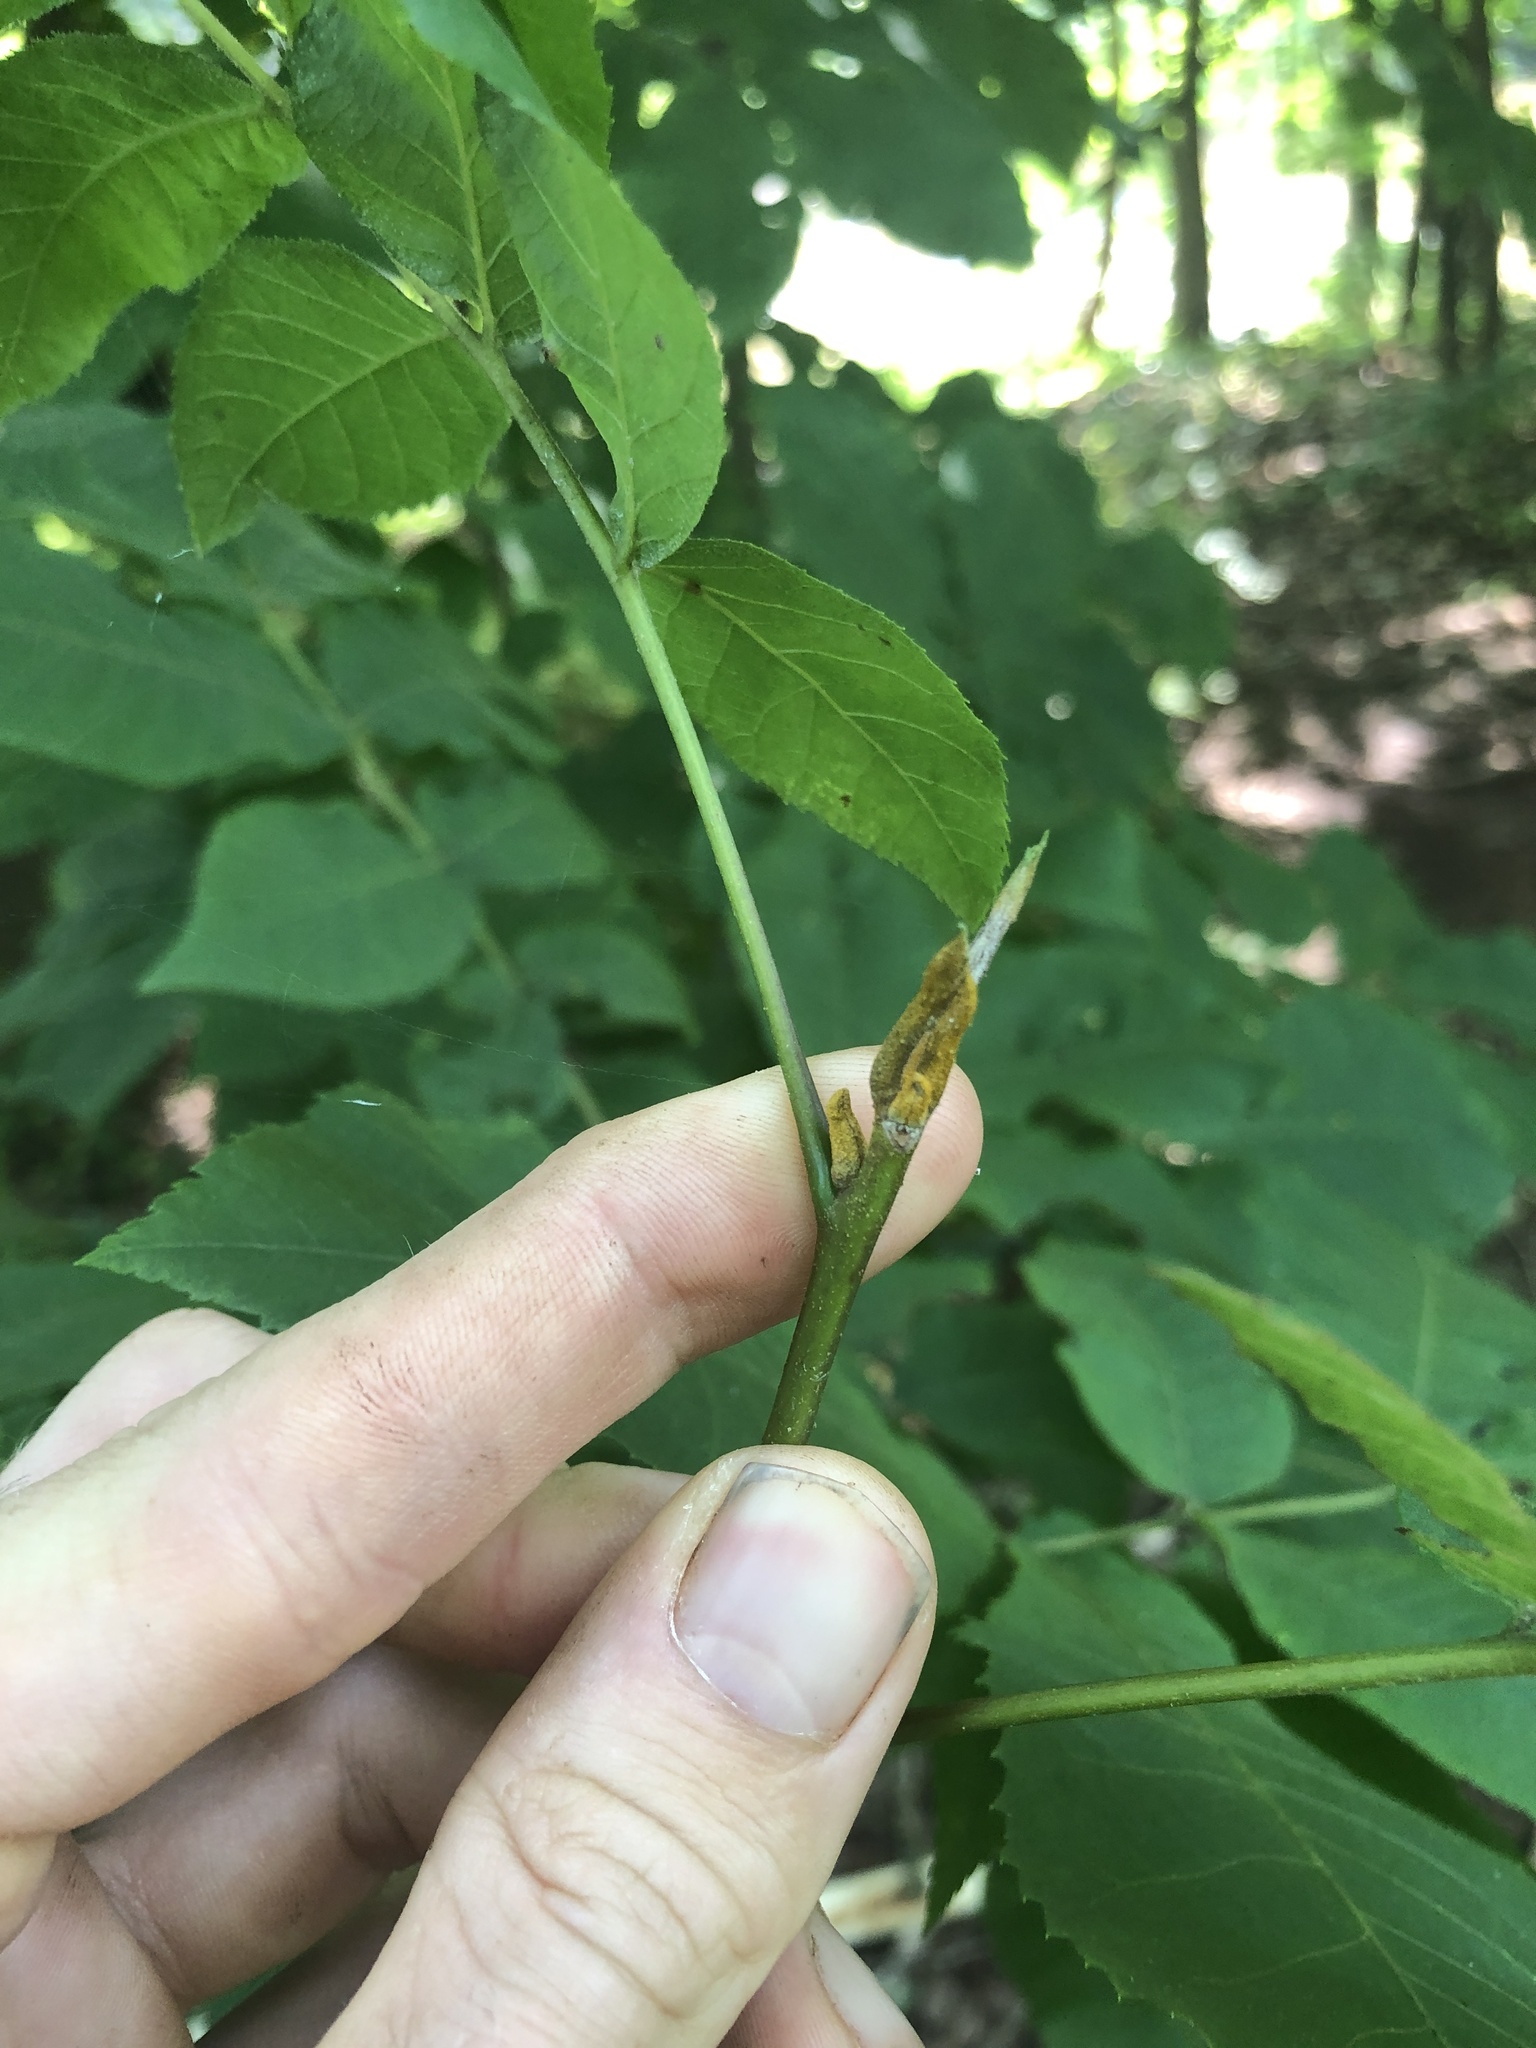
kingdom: Plantae
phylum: Tracheophyta
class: Magnoliopsida
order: Fagales
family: Juglandaceae
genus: Carya
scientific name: Carya cordiformis
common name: Bitternut hickory
